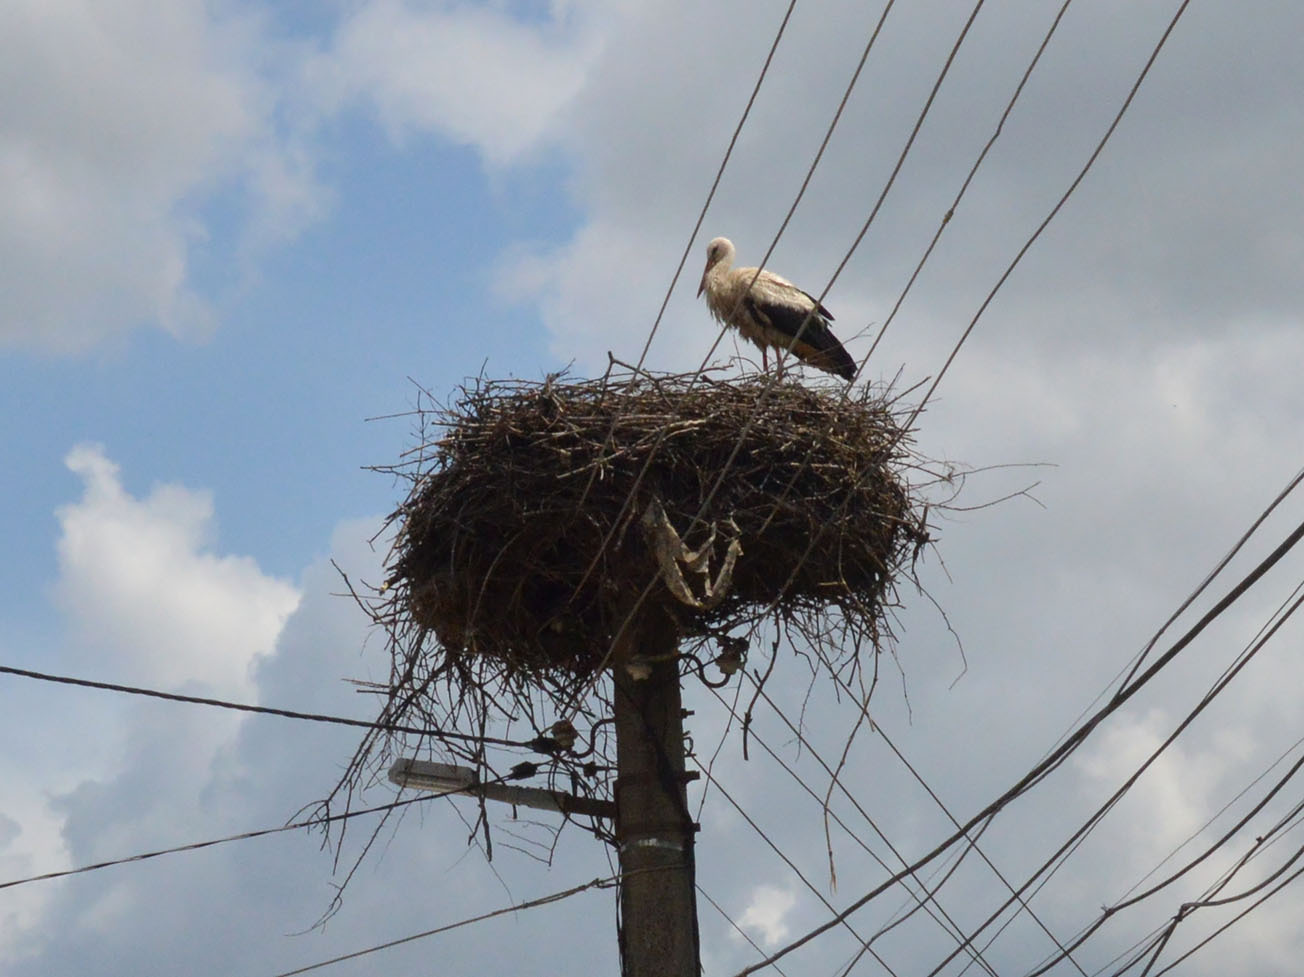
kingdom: Animalia
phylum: Chordata
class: Aves
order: Ciconiiformes
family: Ciconiidae
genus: Ciconia
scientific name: Ciconia ciconia
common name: White stork
